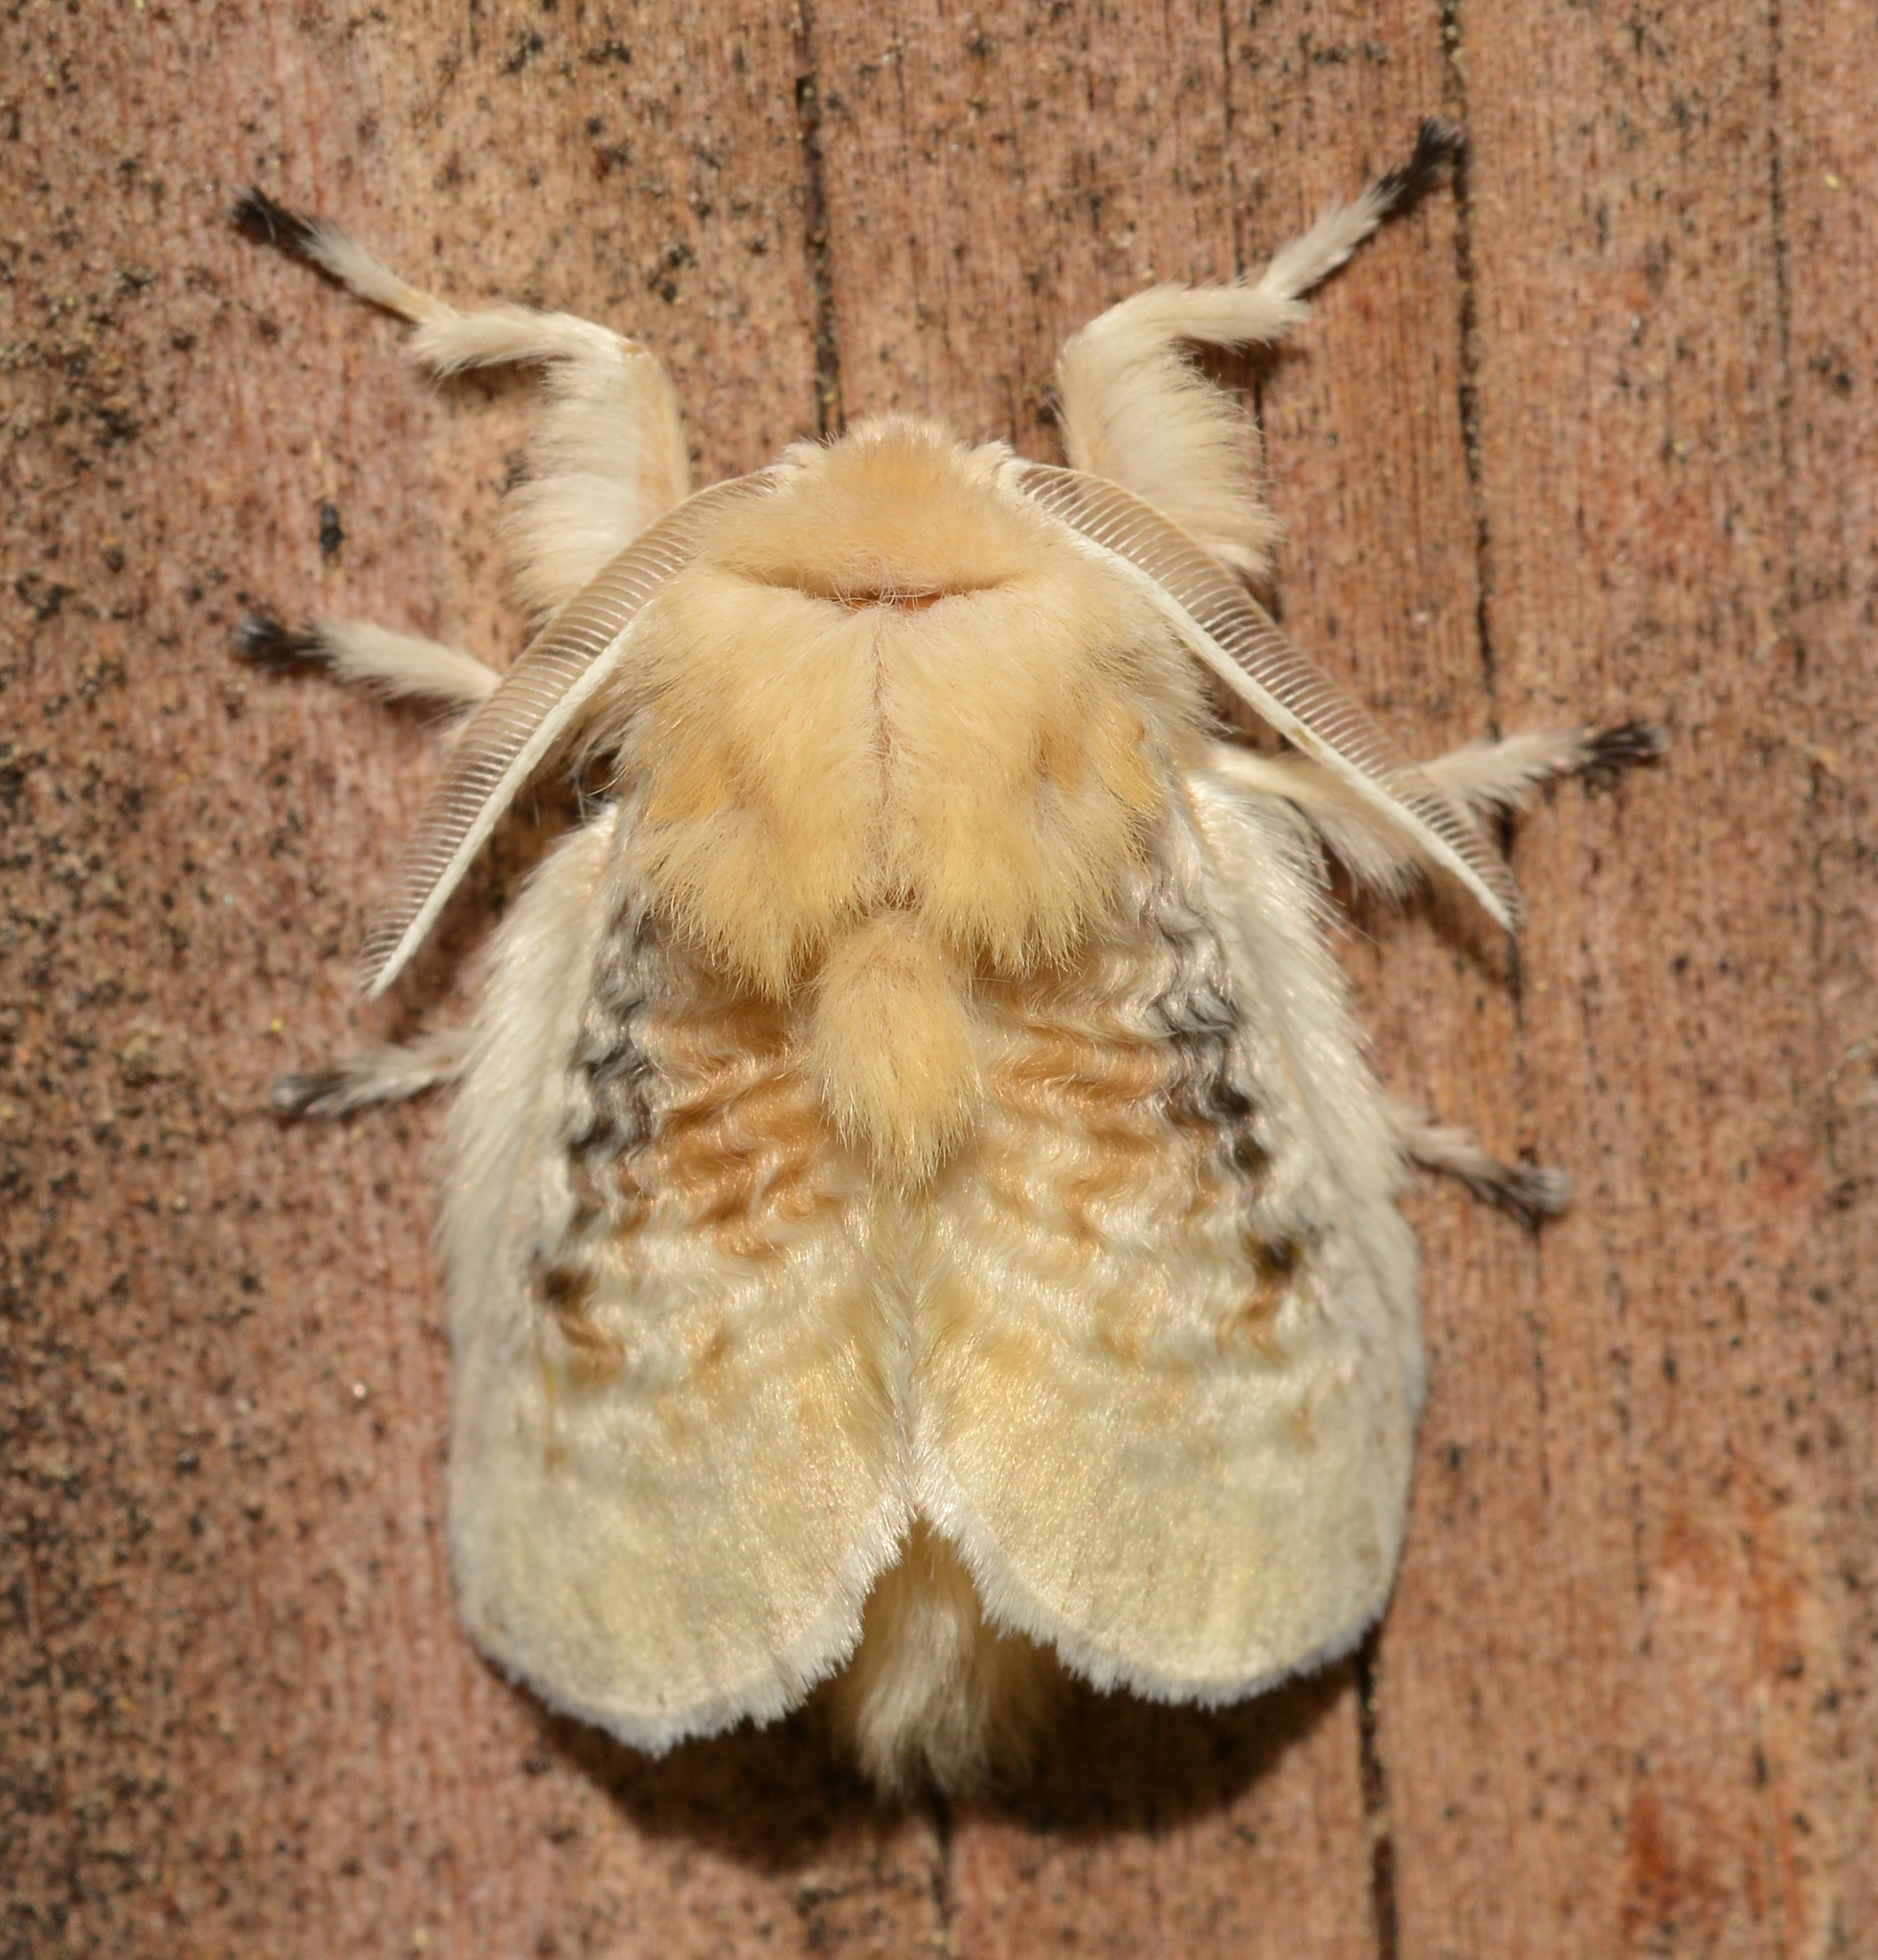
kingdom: Animalia
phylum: Arthropoda
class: Insecta
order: Lepidoptera
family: Megalopygidae
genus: Megalopyge
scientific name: Megalopyge crispata
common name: Black-waved flannel moth
